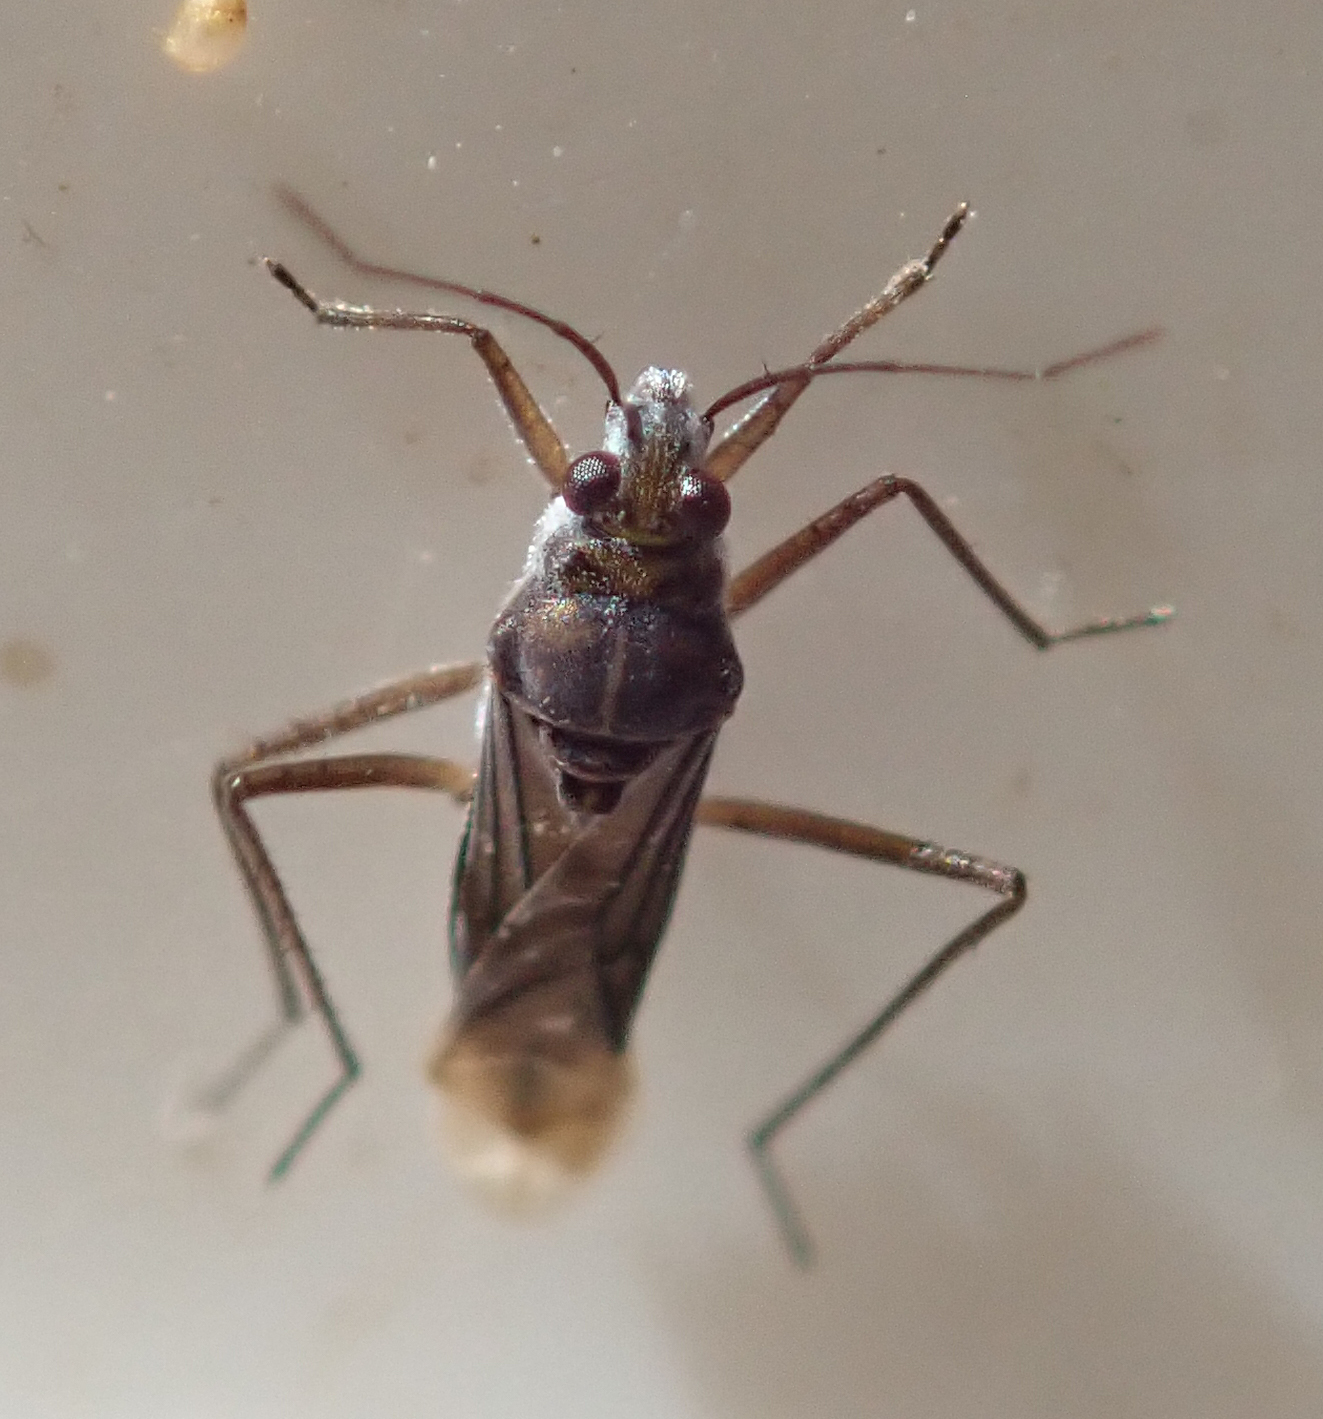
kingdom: Animalia
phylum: Arthropoda
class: Insecta
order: Hemiptera
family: Mesoveliidae
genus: Mesovelia
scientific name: Mesovelia
